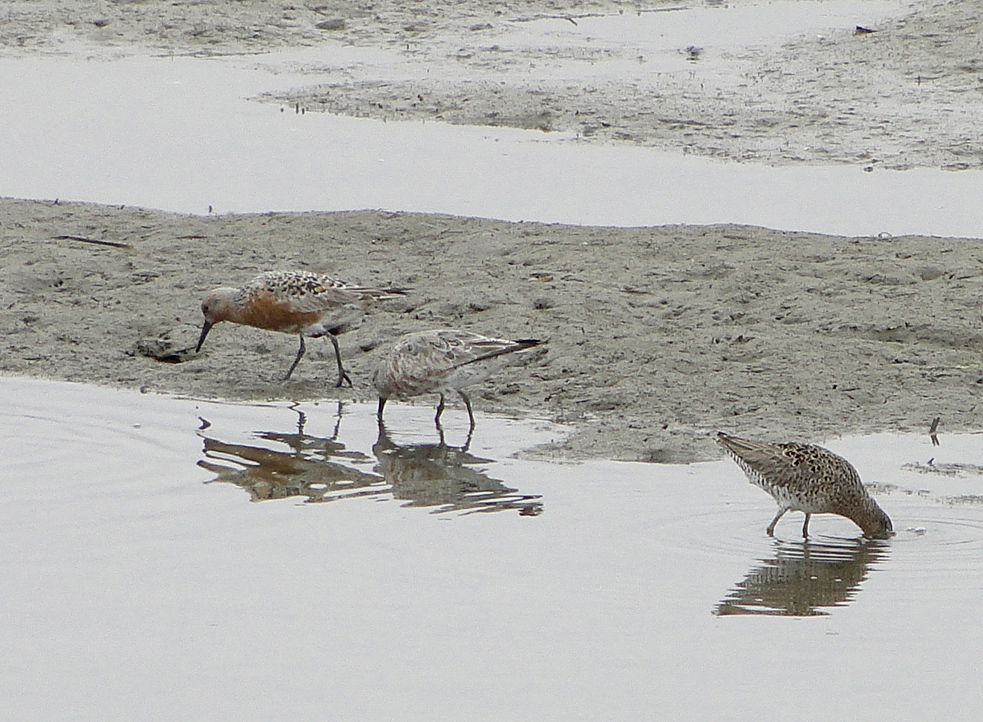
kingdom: Animalia
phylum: Chordata
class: Aves
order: Charadriiformes
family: Scolopacidae
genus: Calidris
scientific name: Calidris canutus
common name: Red knot
